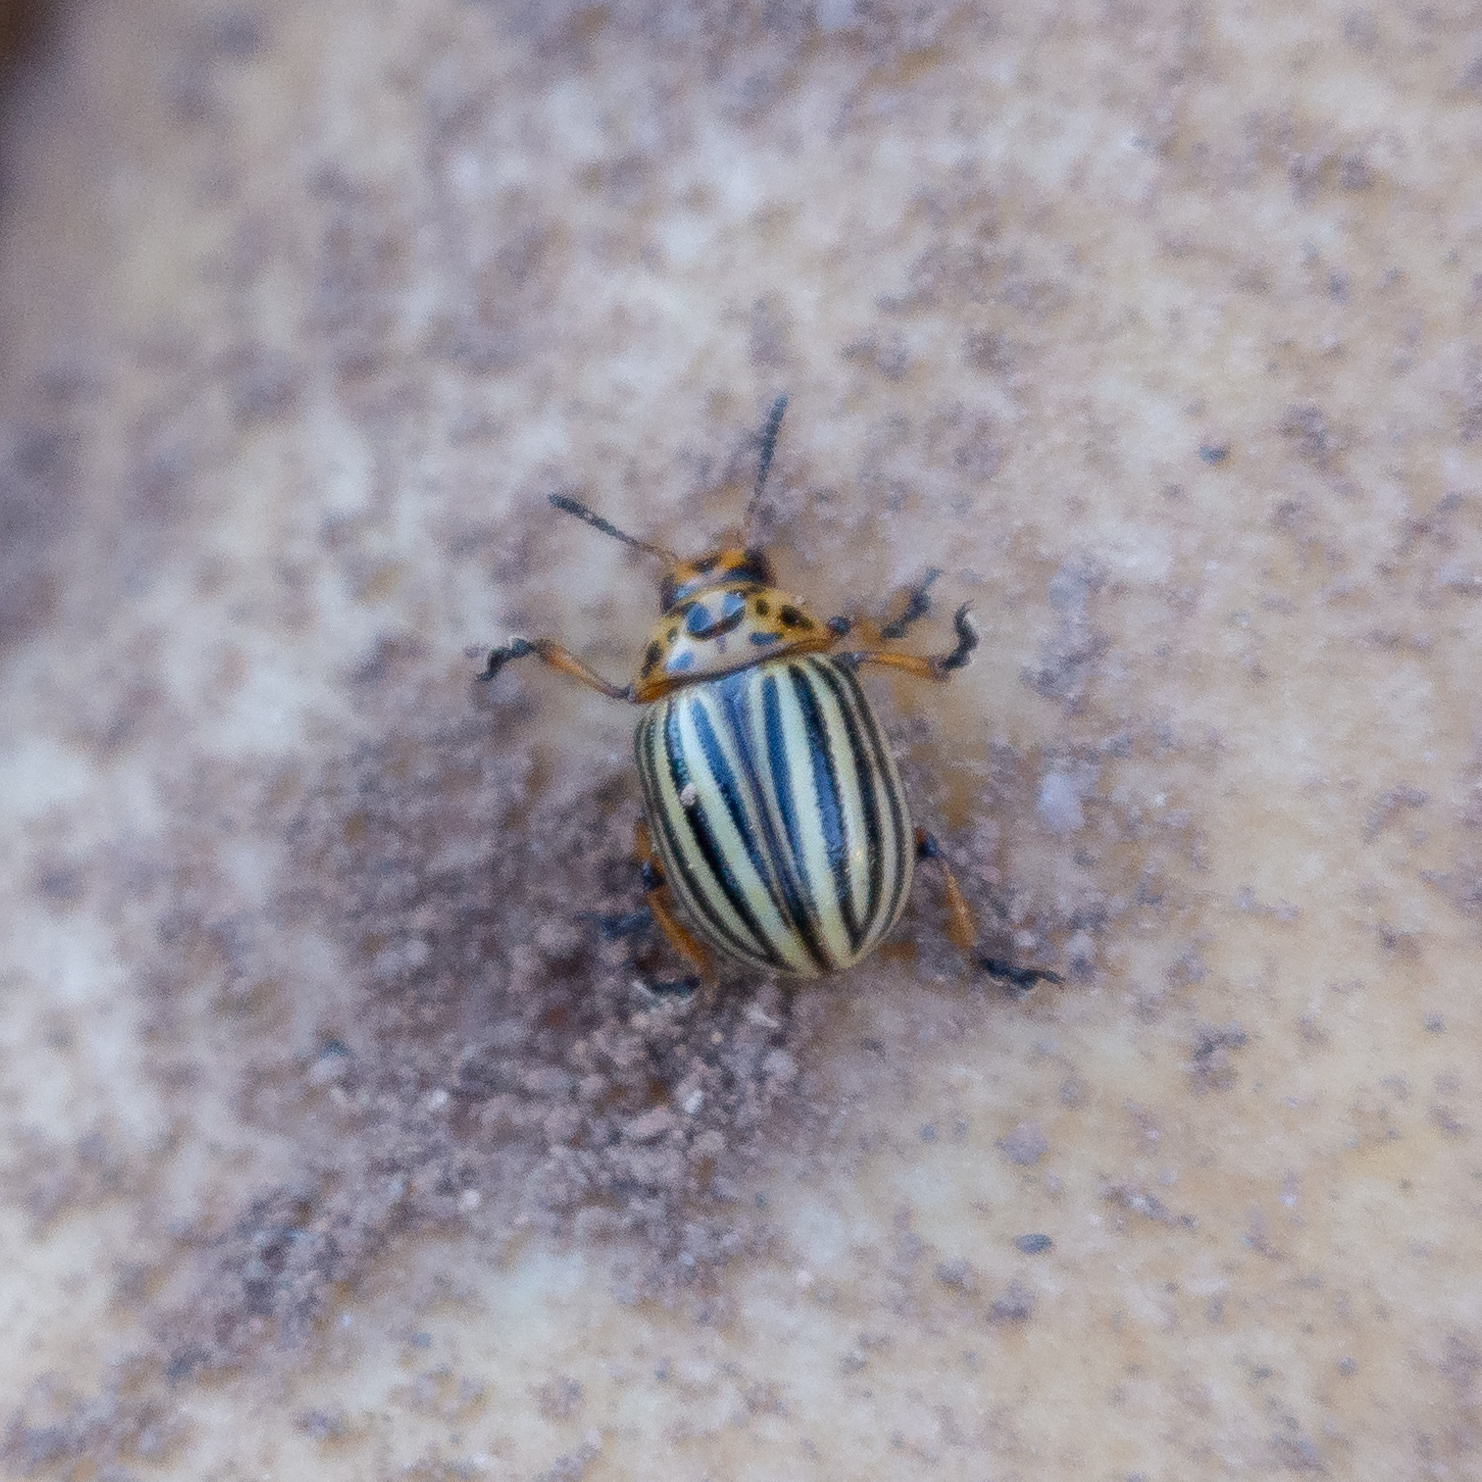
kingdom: Animalia
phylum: Arthropoda
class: Insecta
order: Coleoptera
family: Chrysomelidae
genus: Leptinotarsa
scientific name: Leptinotarsa decemlineata
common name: Colorado potato beetle
